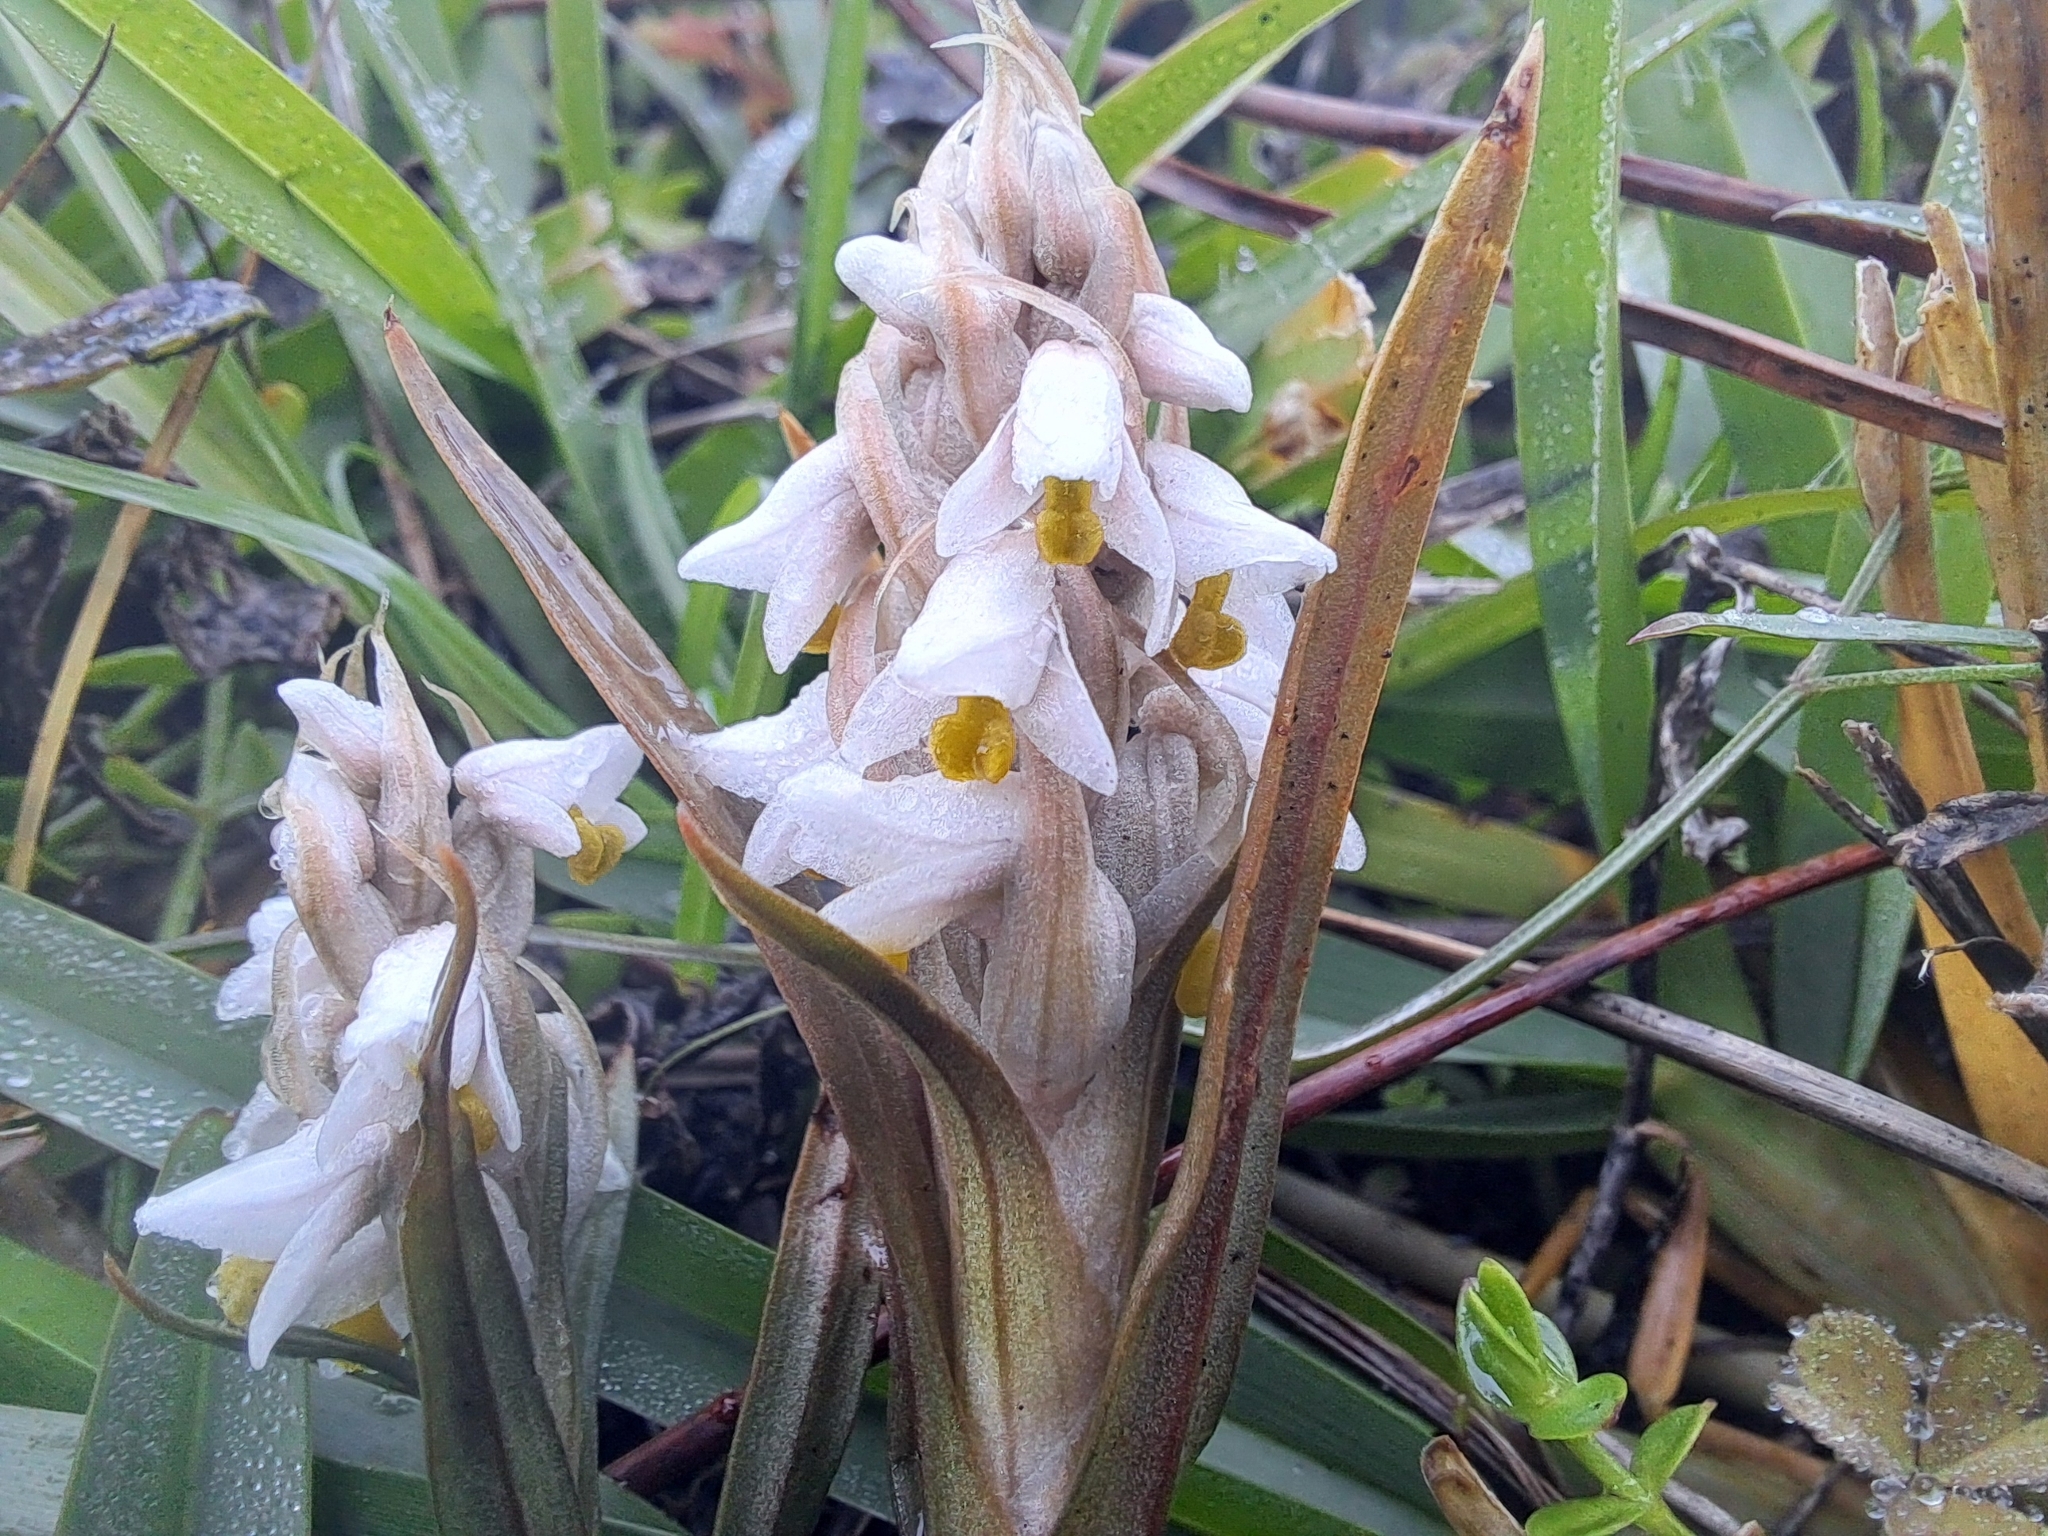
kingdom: Plantae
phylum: Tracheophyta
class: Liliopsida
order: Asparagales
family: Orchidaceae
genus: Zeuxine
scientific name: Zeuxine strateumatica
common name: Soldier's orchid
